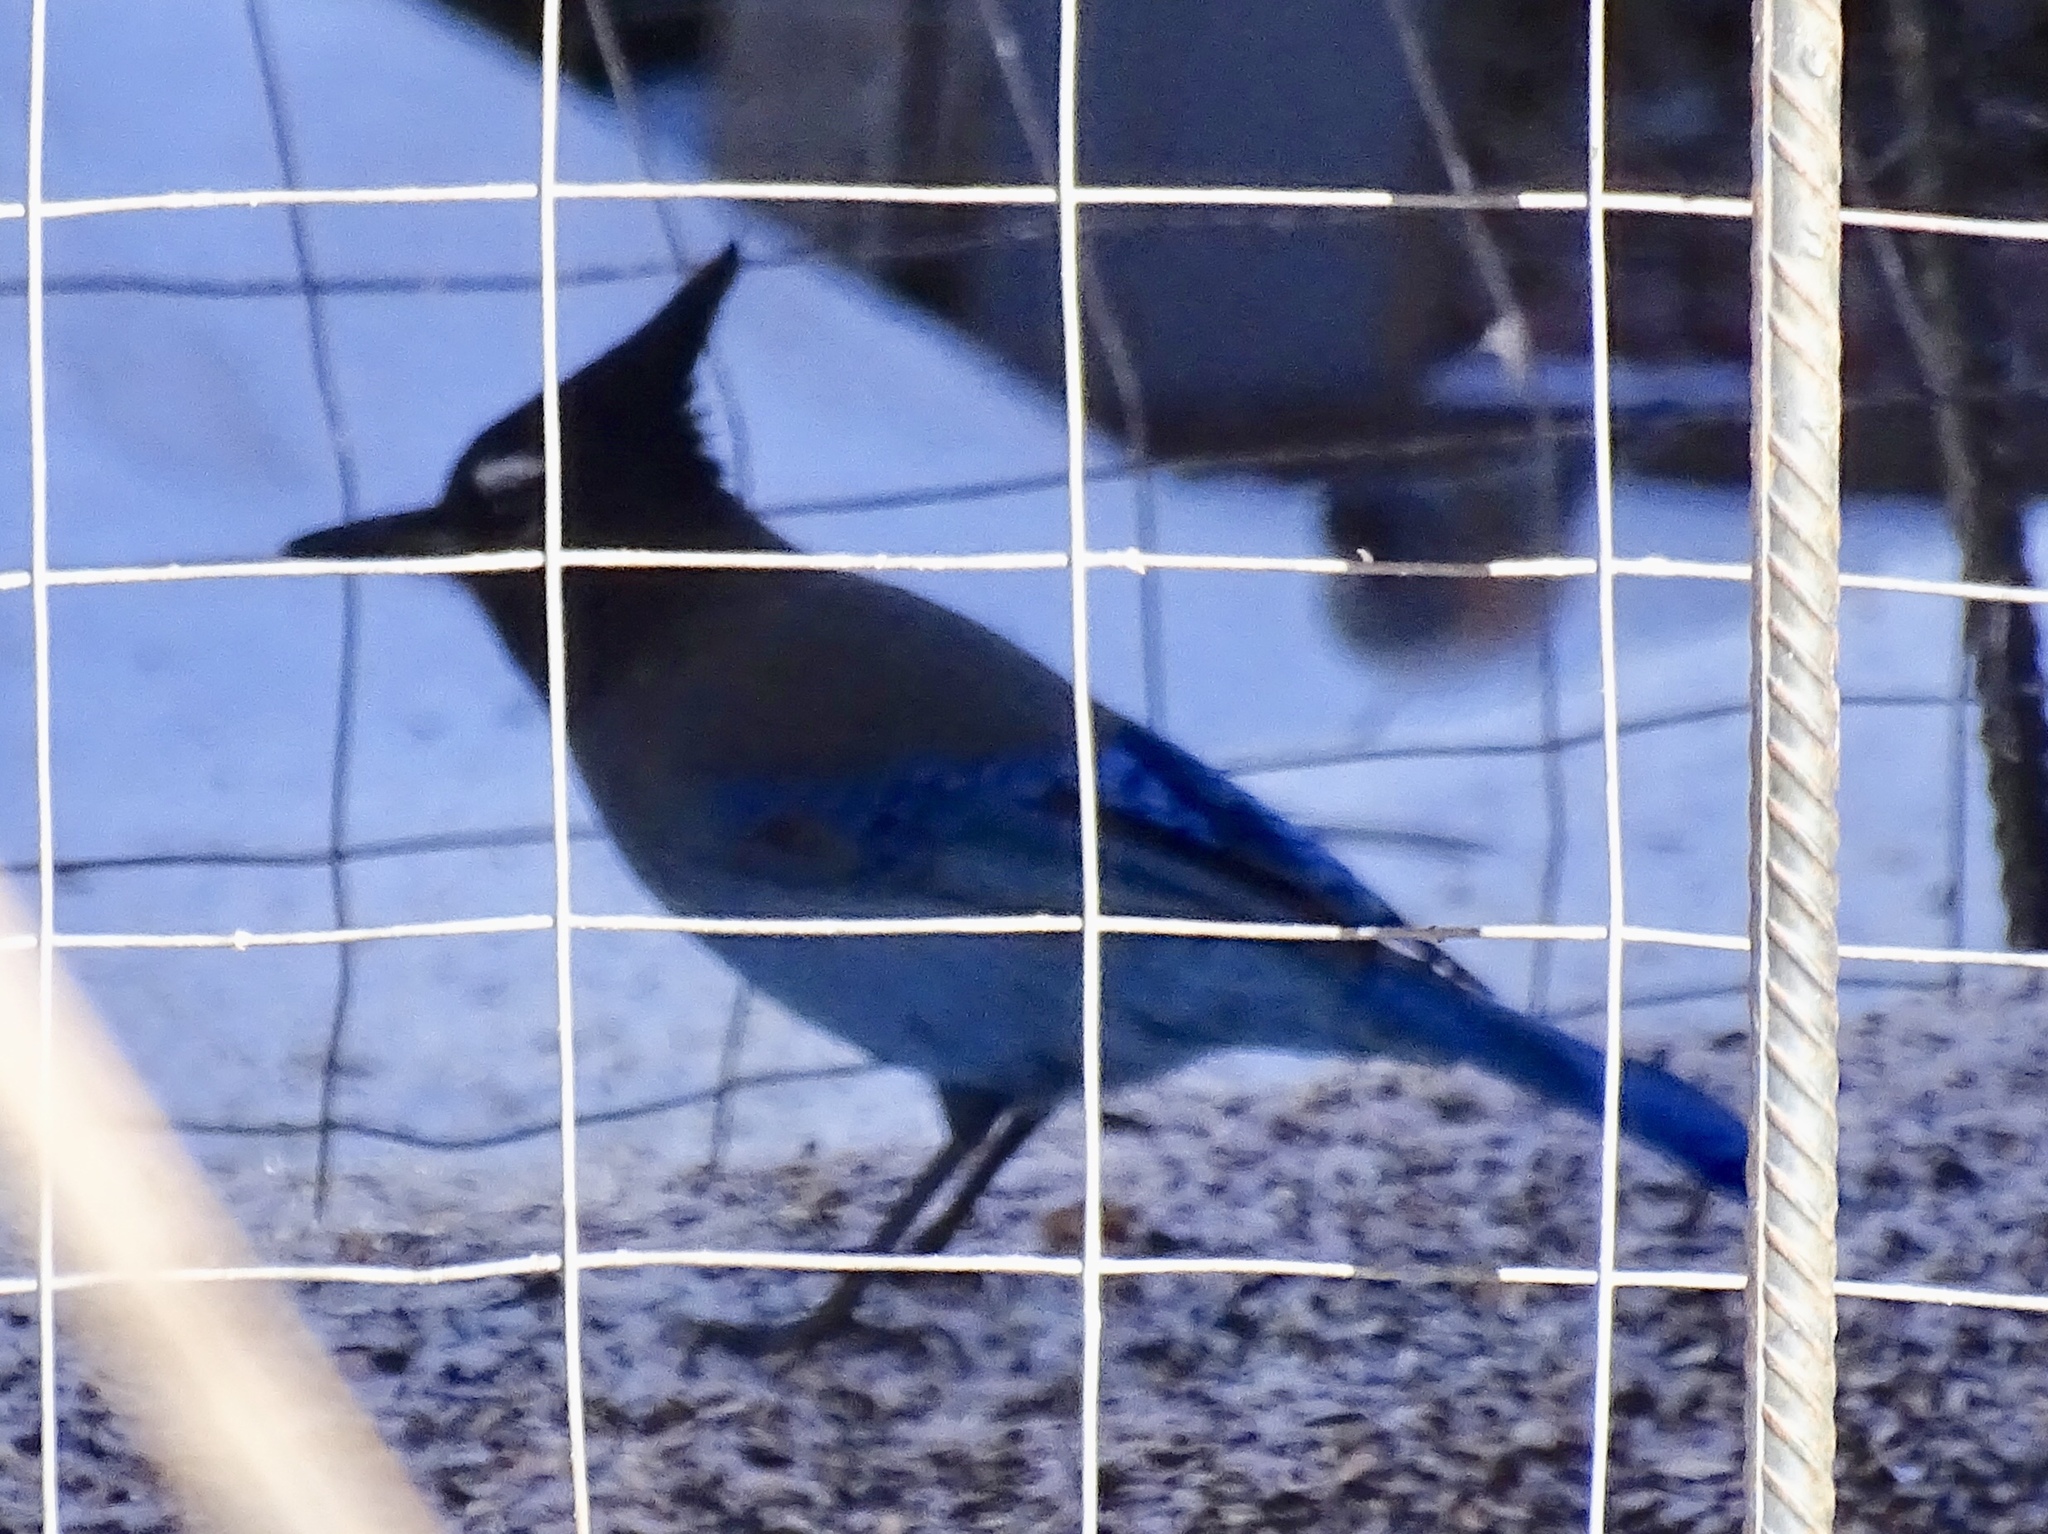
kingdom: Animalia
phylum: Chordata
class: Aves
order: Passeriformes
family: Corvidae
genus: Cyanocitta
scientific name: Cyanocitta stelleri
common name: Steller's jay
